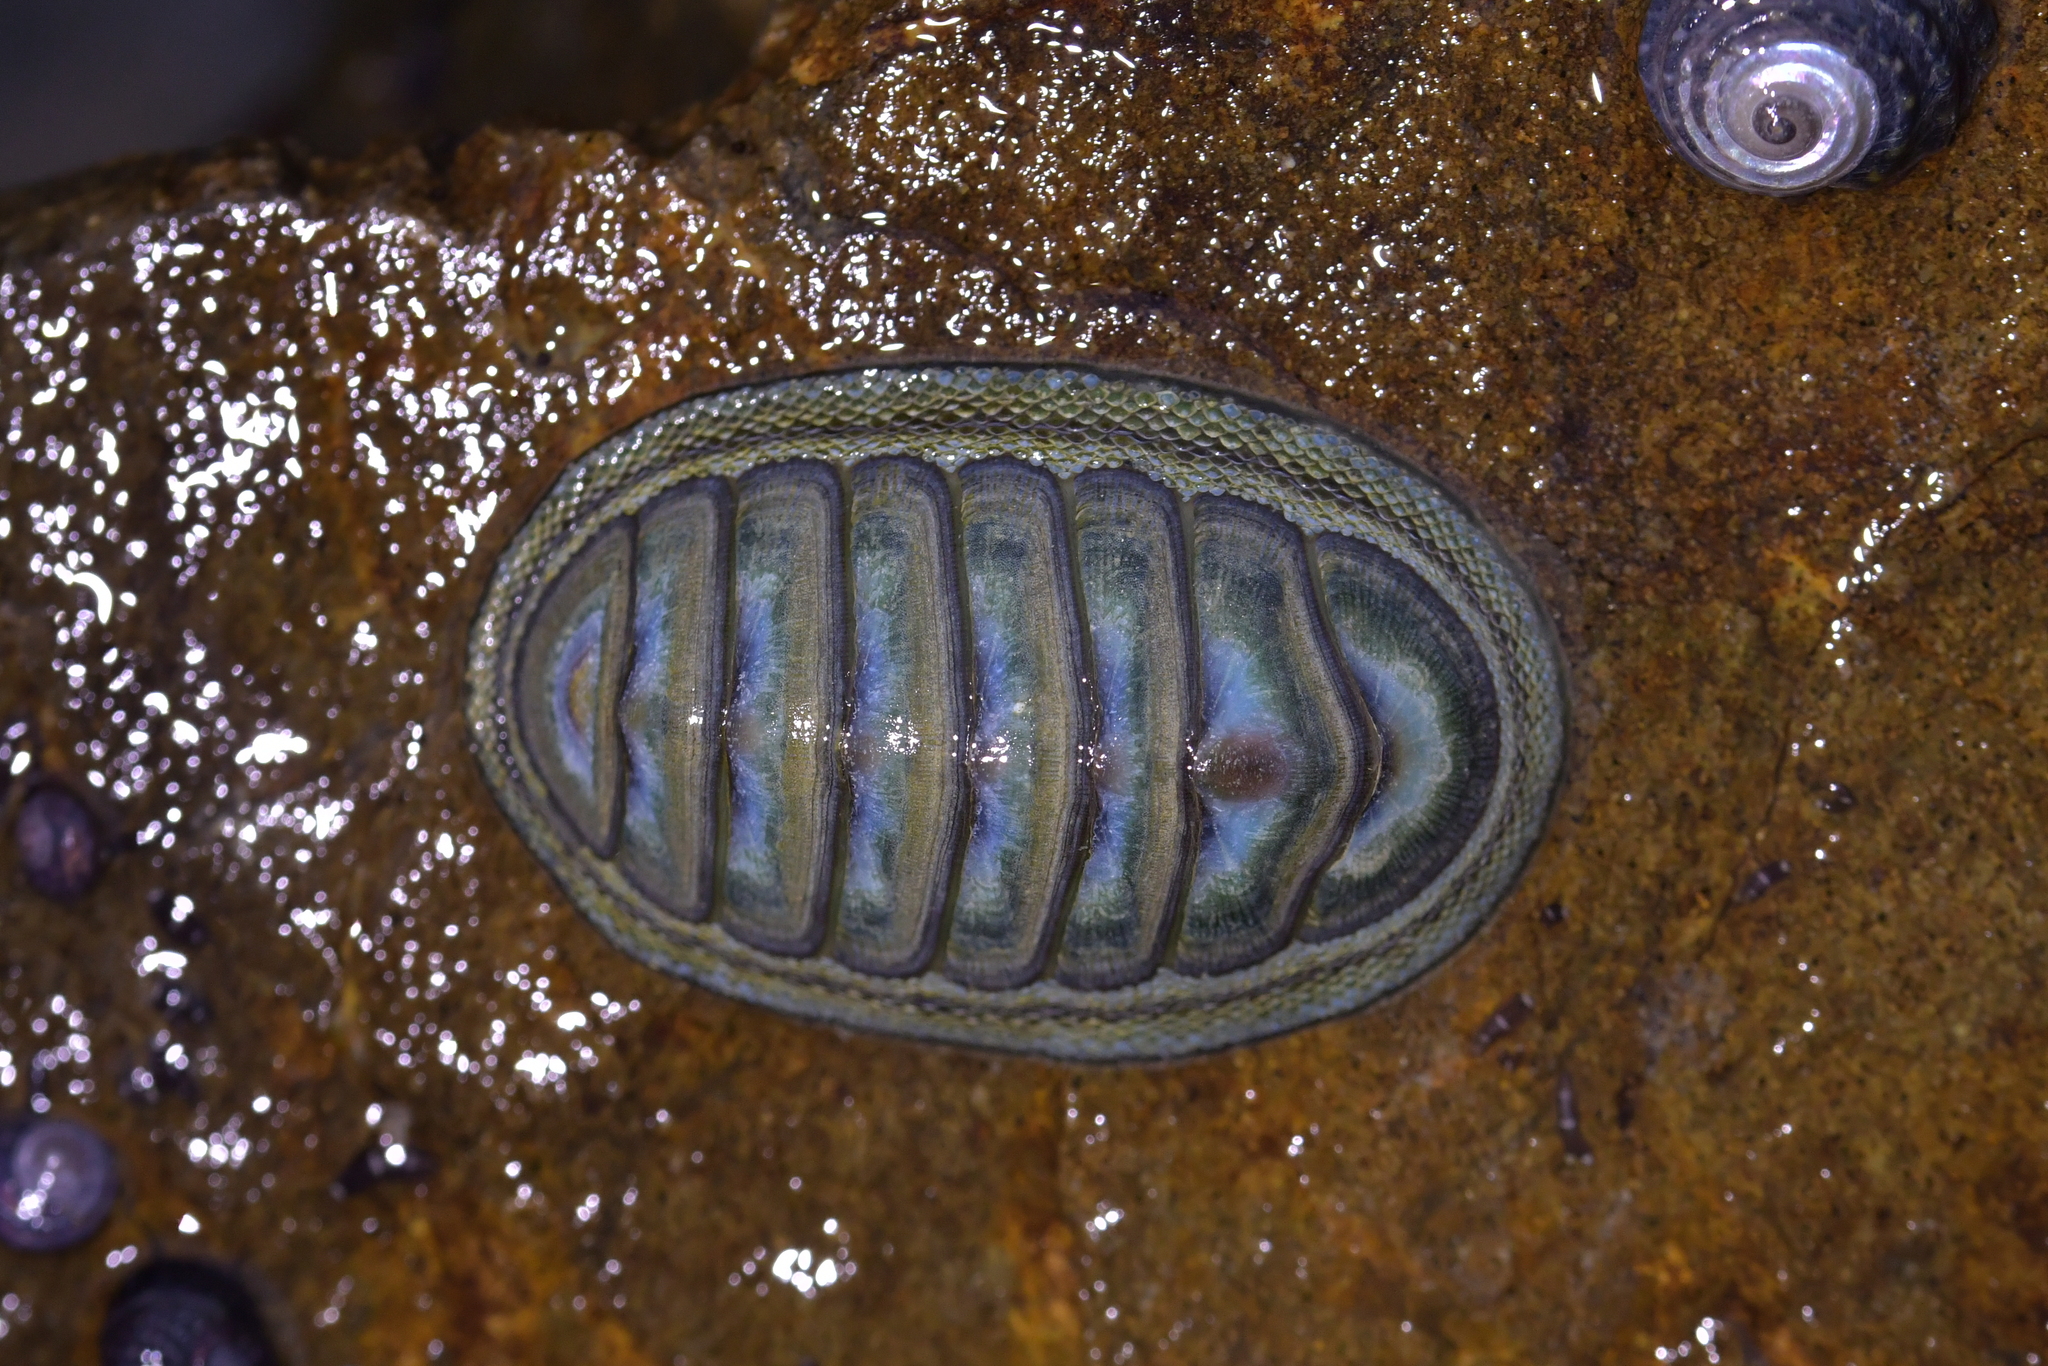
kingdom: Animalia
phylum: Mollusca
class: Polyplacophora
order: Chitonida
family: Chitonidae
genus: Chiton
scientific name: Chiton glaucus
